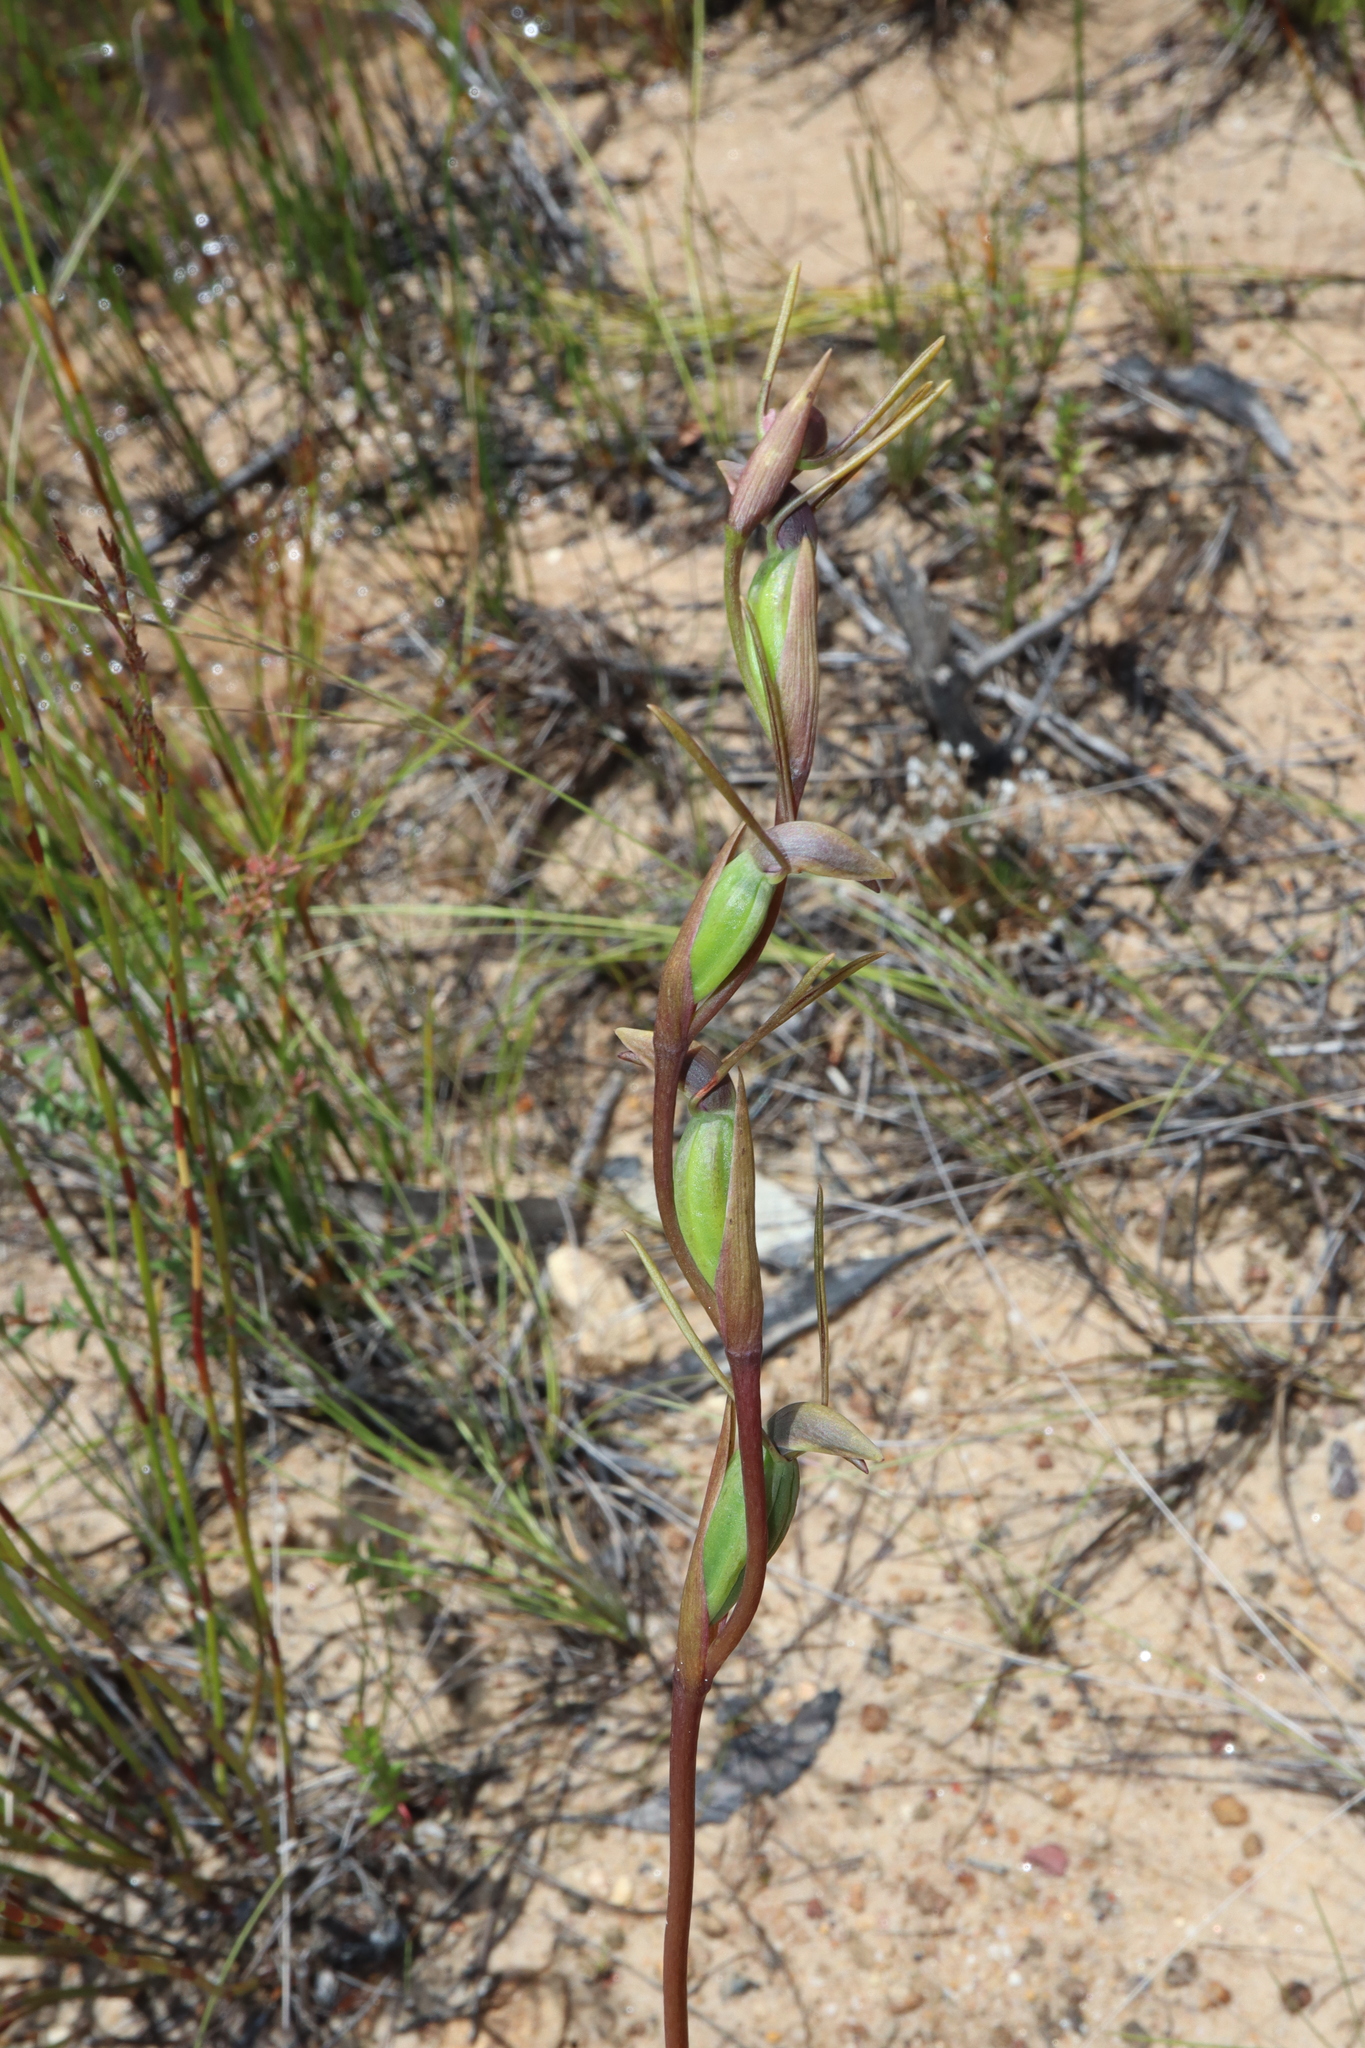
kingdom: Plantae
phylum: Tracheophyta
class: Liliopsida
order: Asparagales
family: Orchidaceae
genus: Orthoceras
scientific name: Orthoceras strictum
